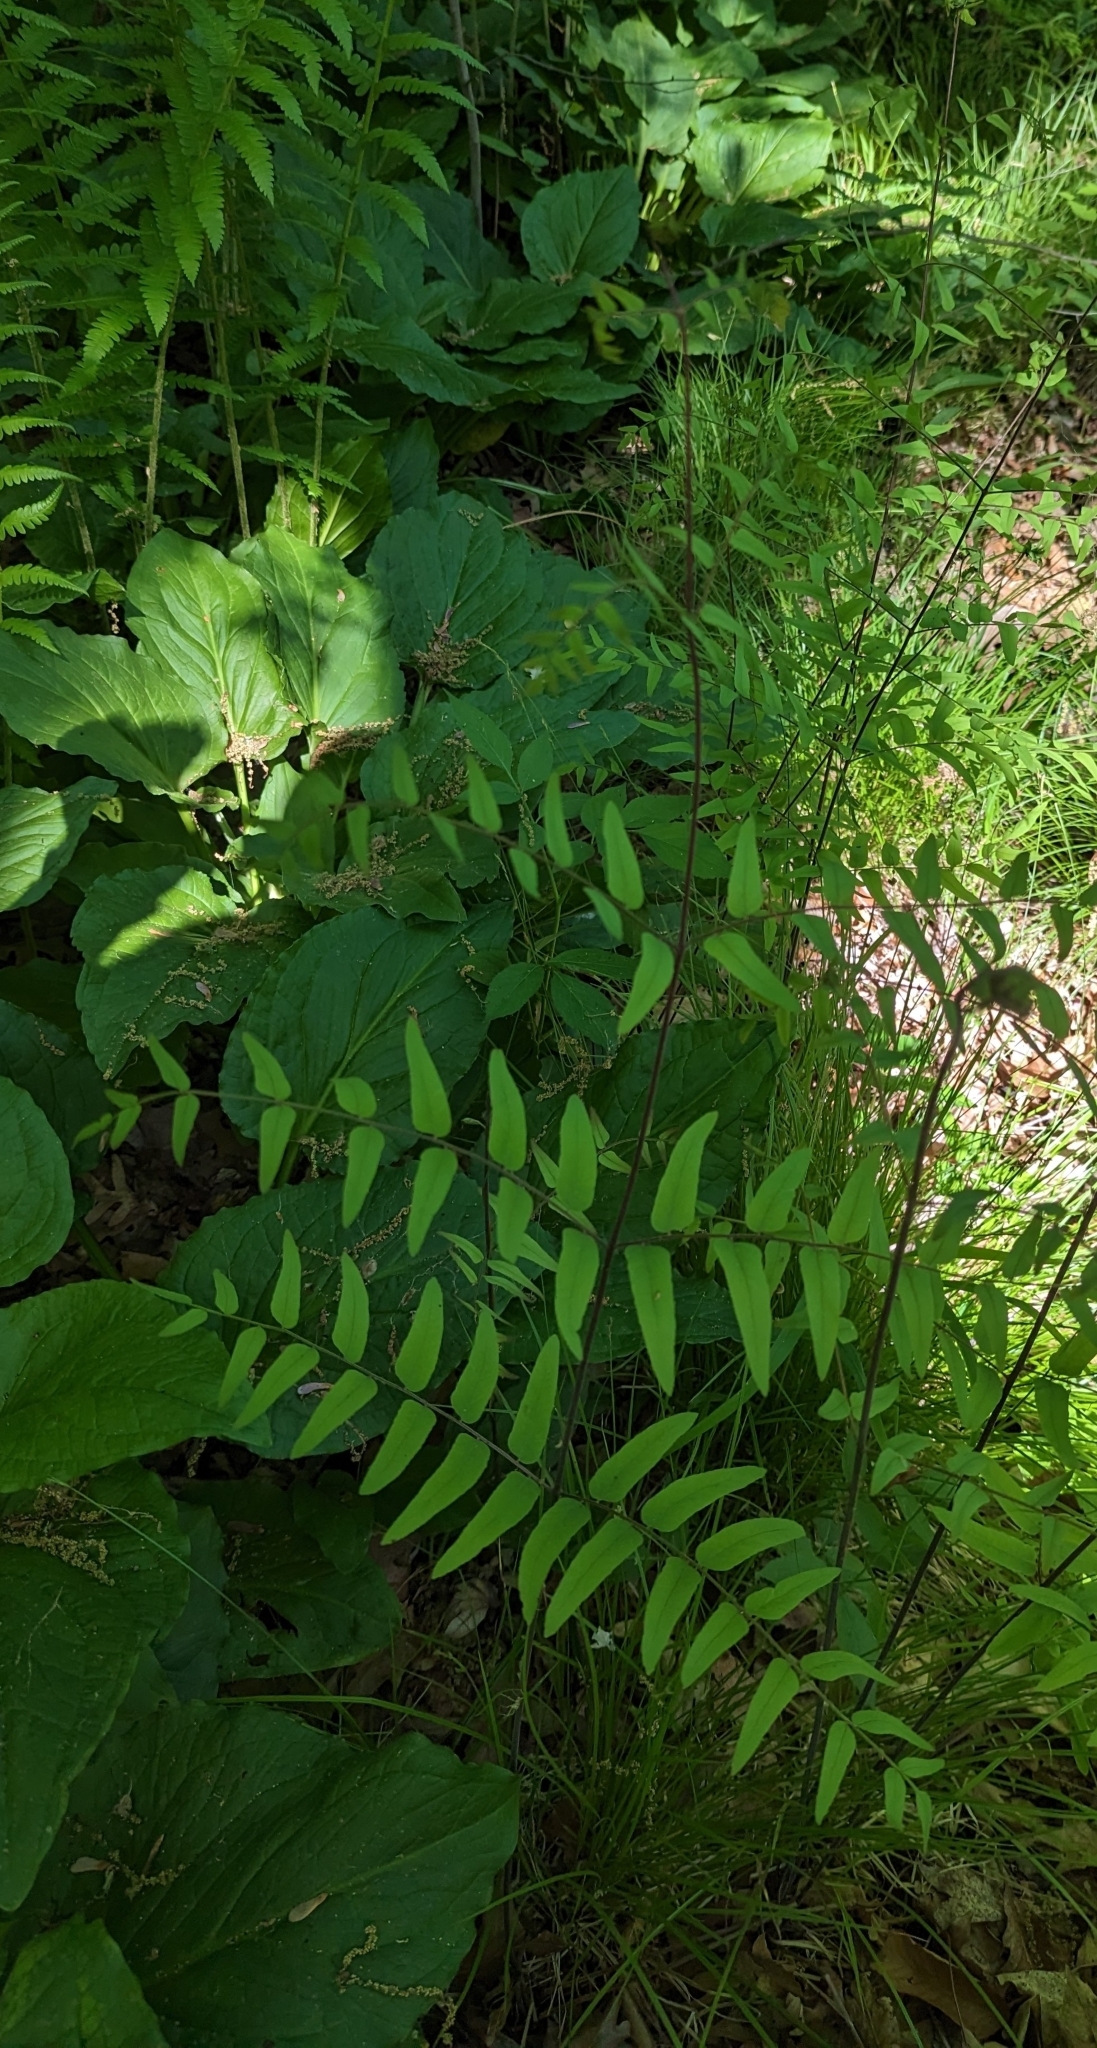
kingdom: Plantae
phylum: Tracheophyta
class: Polypodiopsida
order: Osmundales
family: Osmundaceae
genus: Osmunda
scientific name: Osmunda spectabilis
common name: American royal fern
